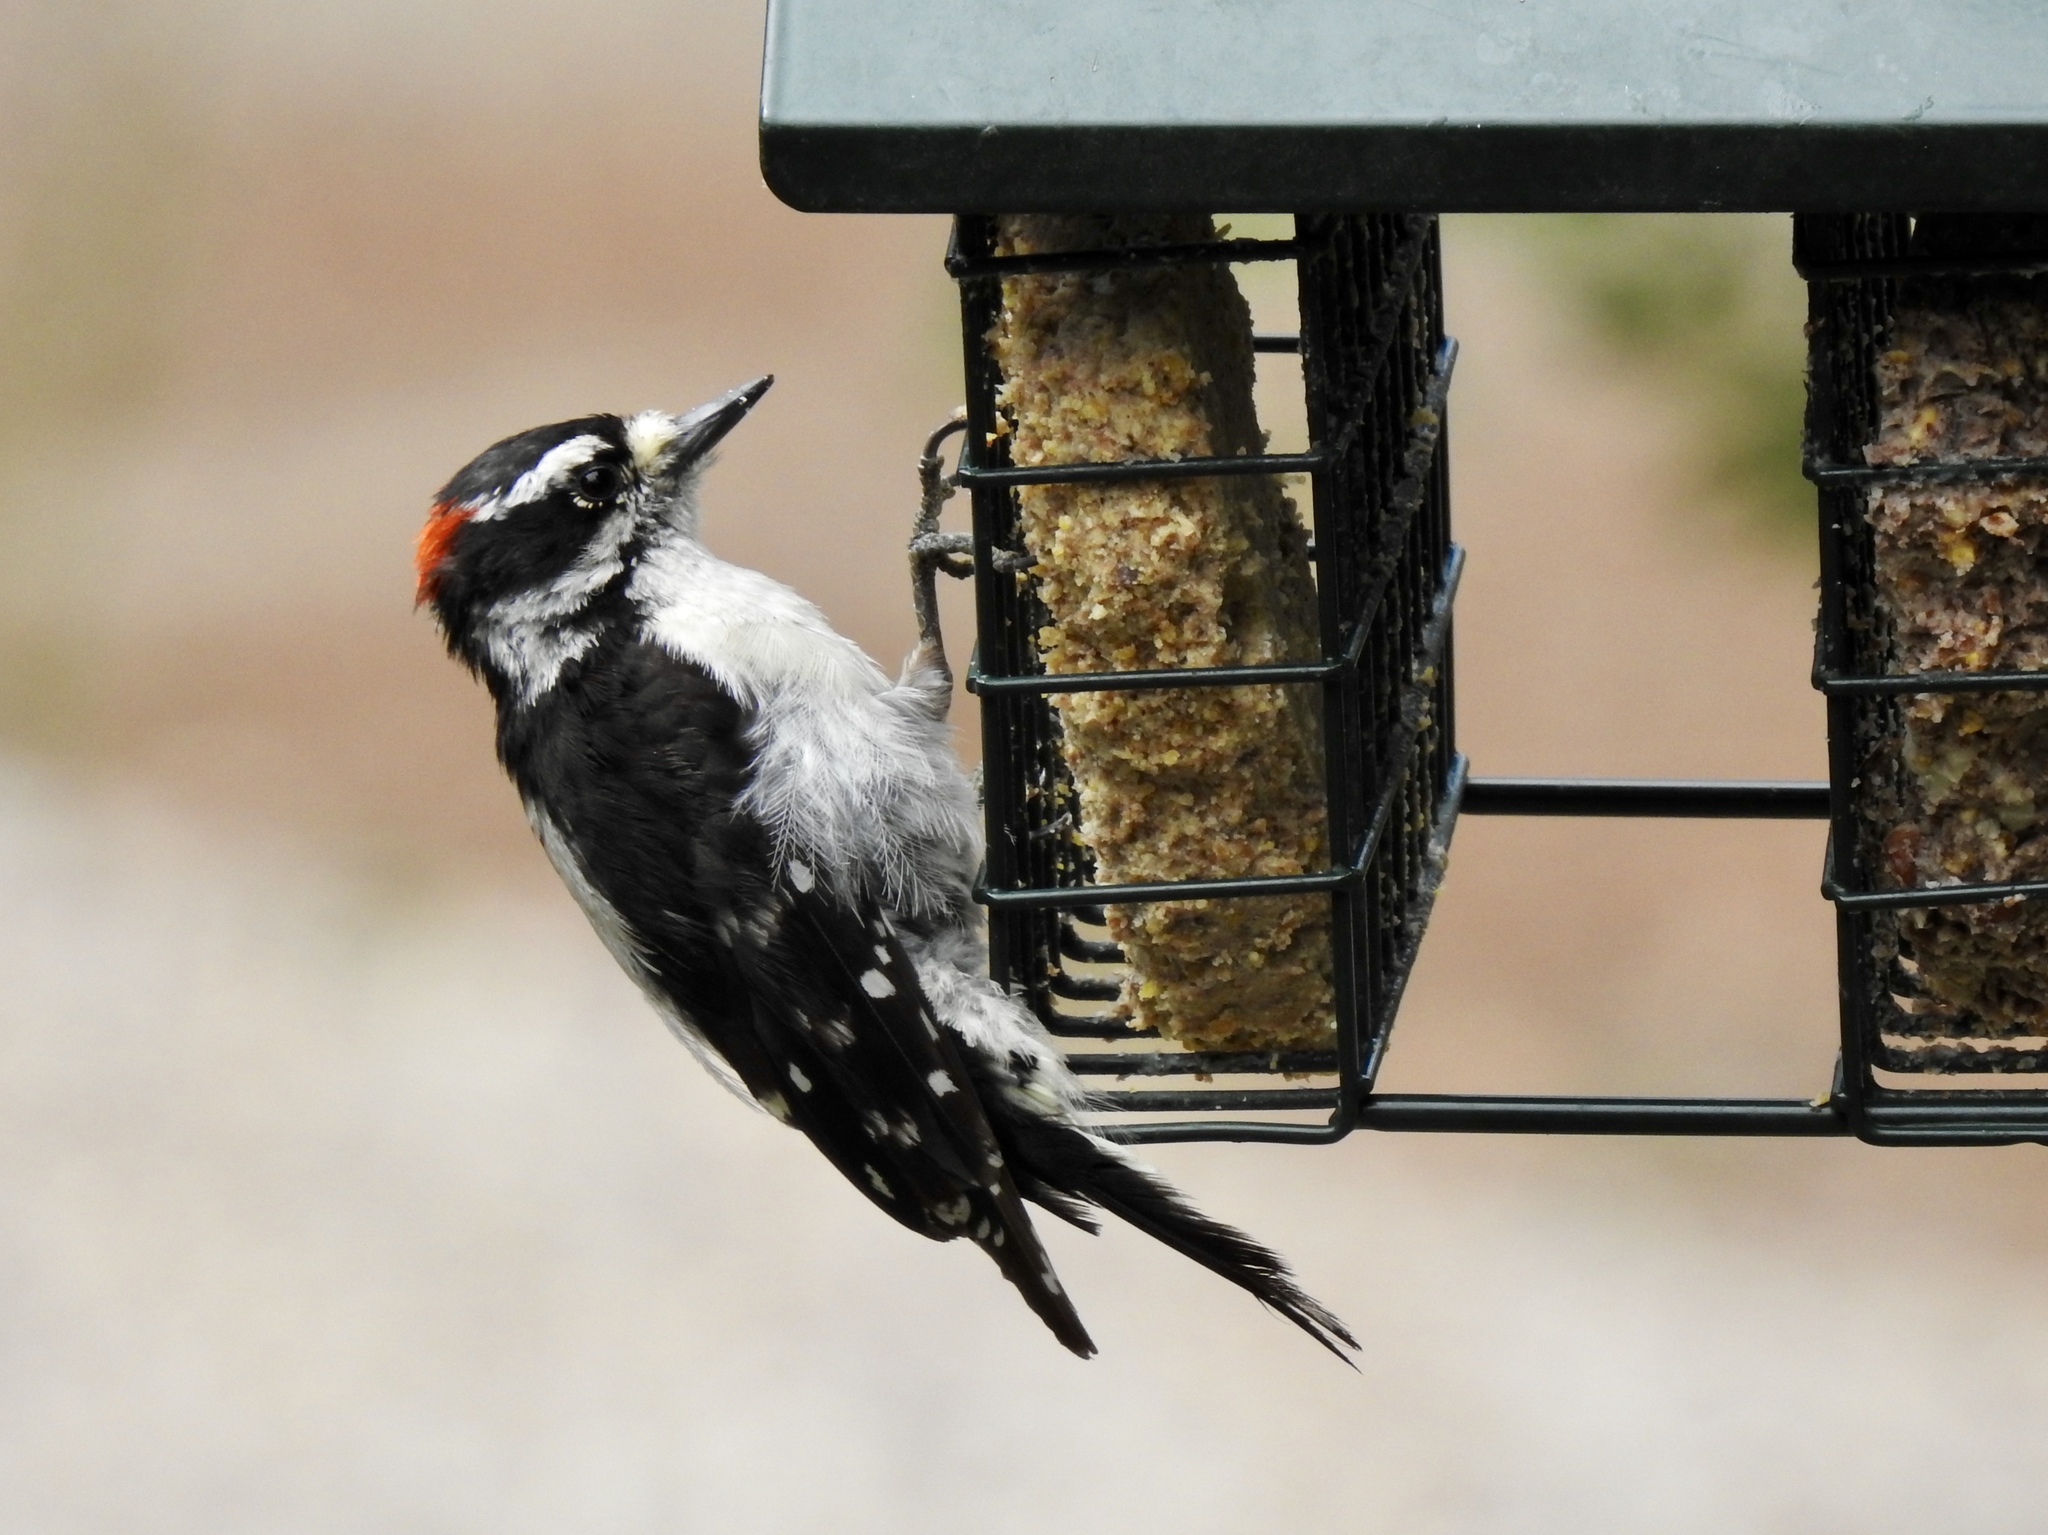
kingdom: Animalia
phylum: Chordata
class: Aves
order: Piciformes
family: Picidae
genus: Dryobates
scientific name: Dryobates pubescens
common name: Downy woodpecker
